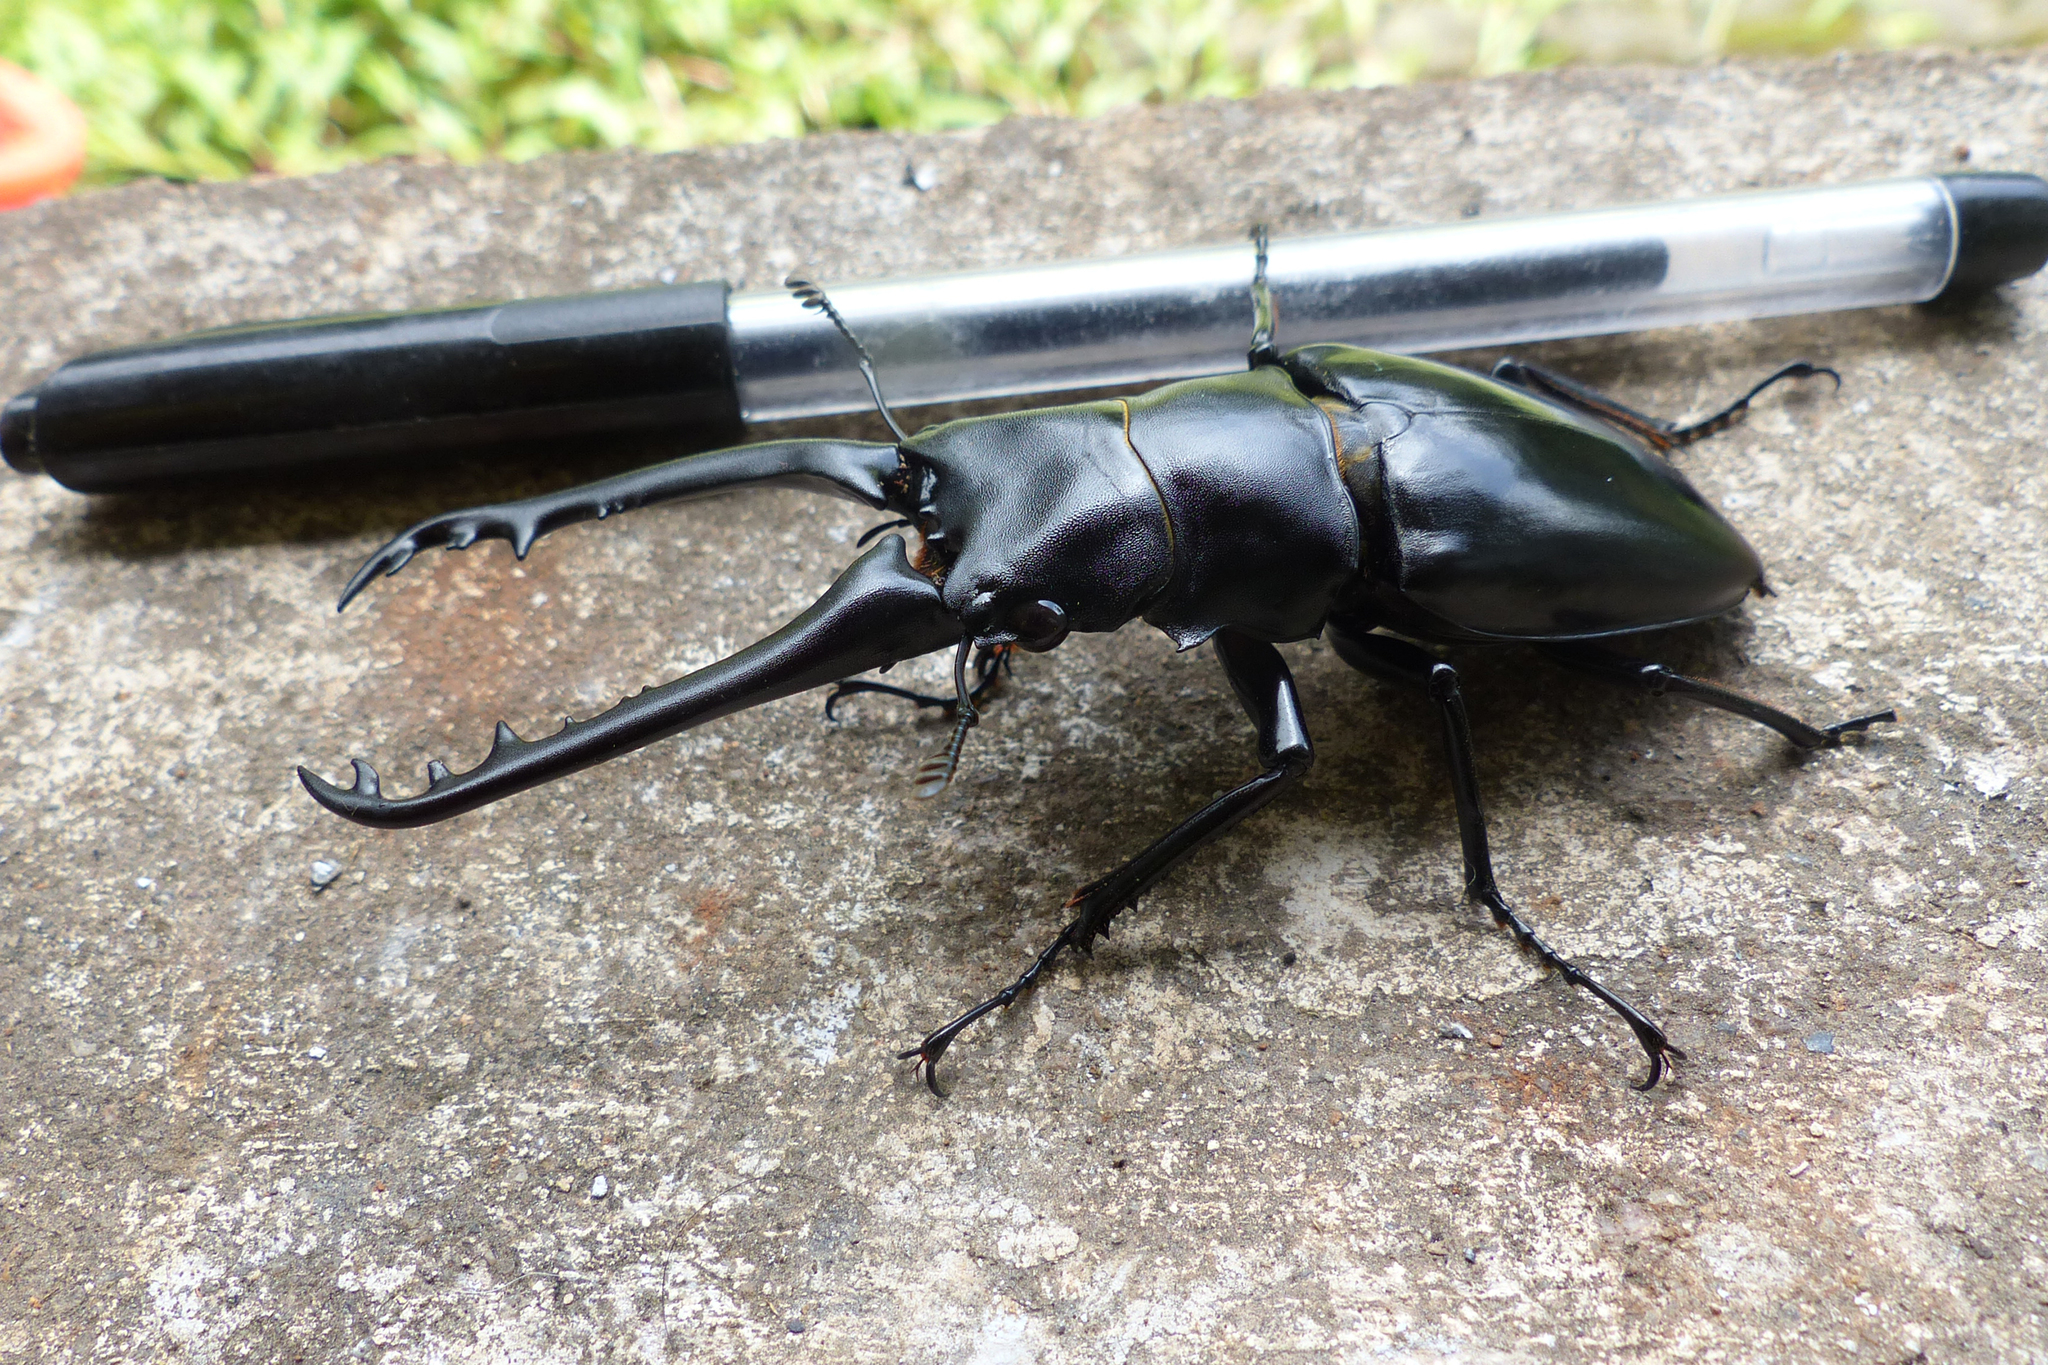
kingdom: Animalia
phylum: Arthropoda
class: Insecta
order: Coleoptera
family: Lucanidae
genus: Prosopocoilus
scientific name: Prosopocoilus girafa
